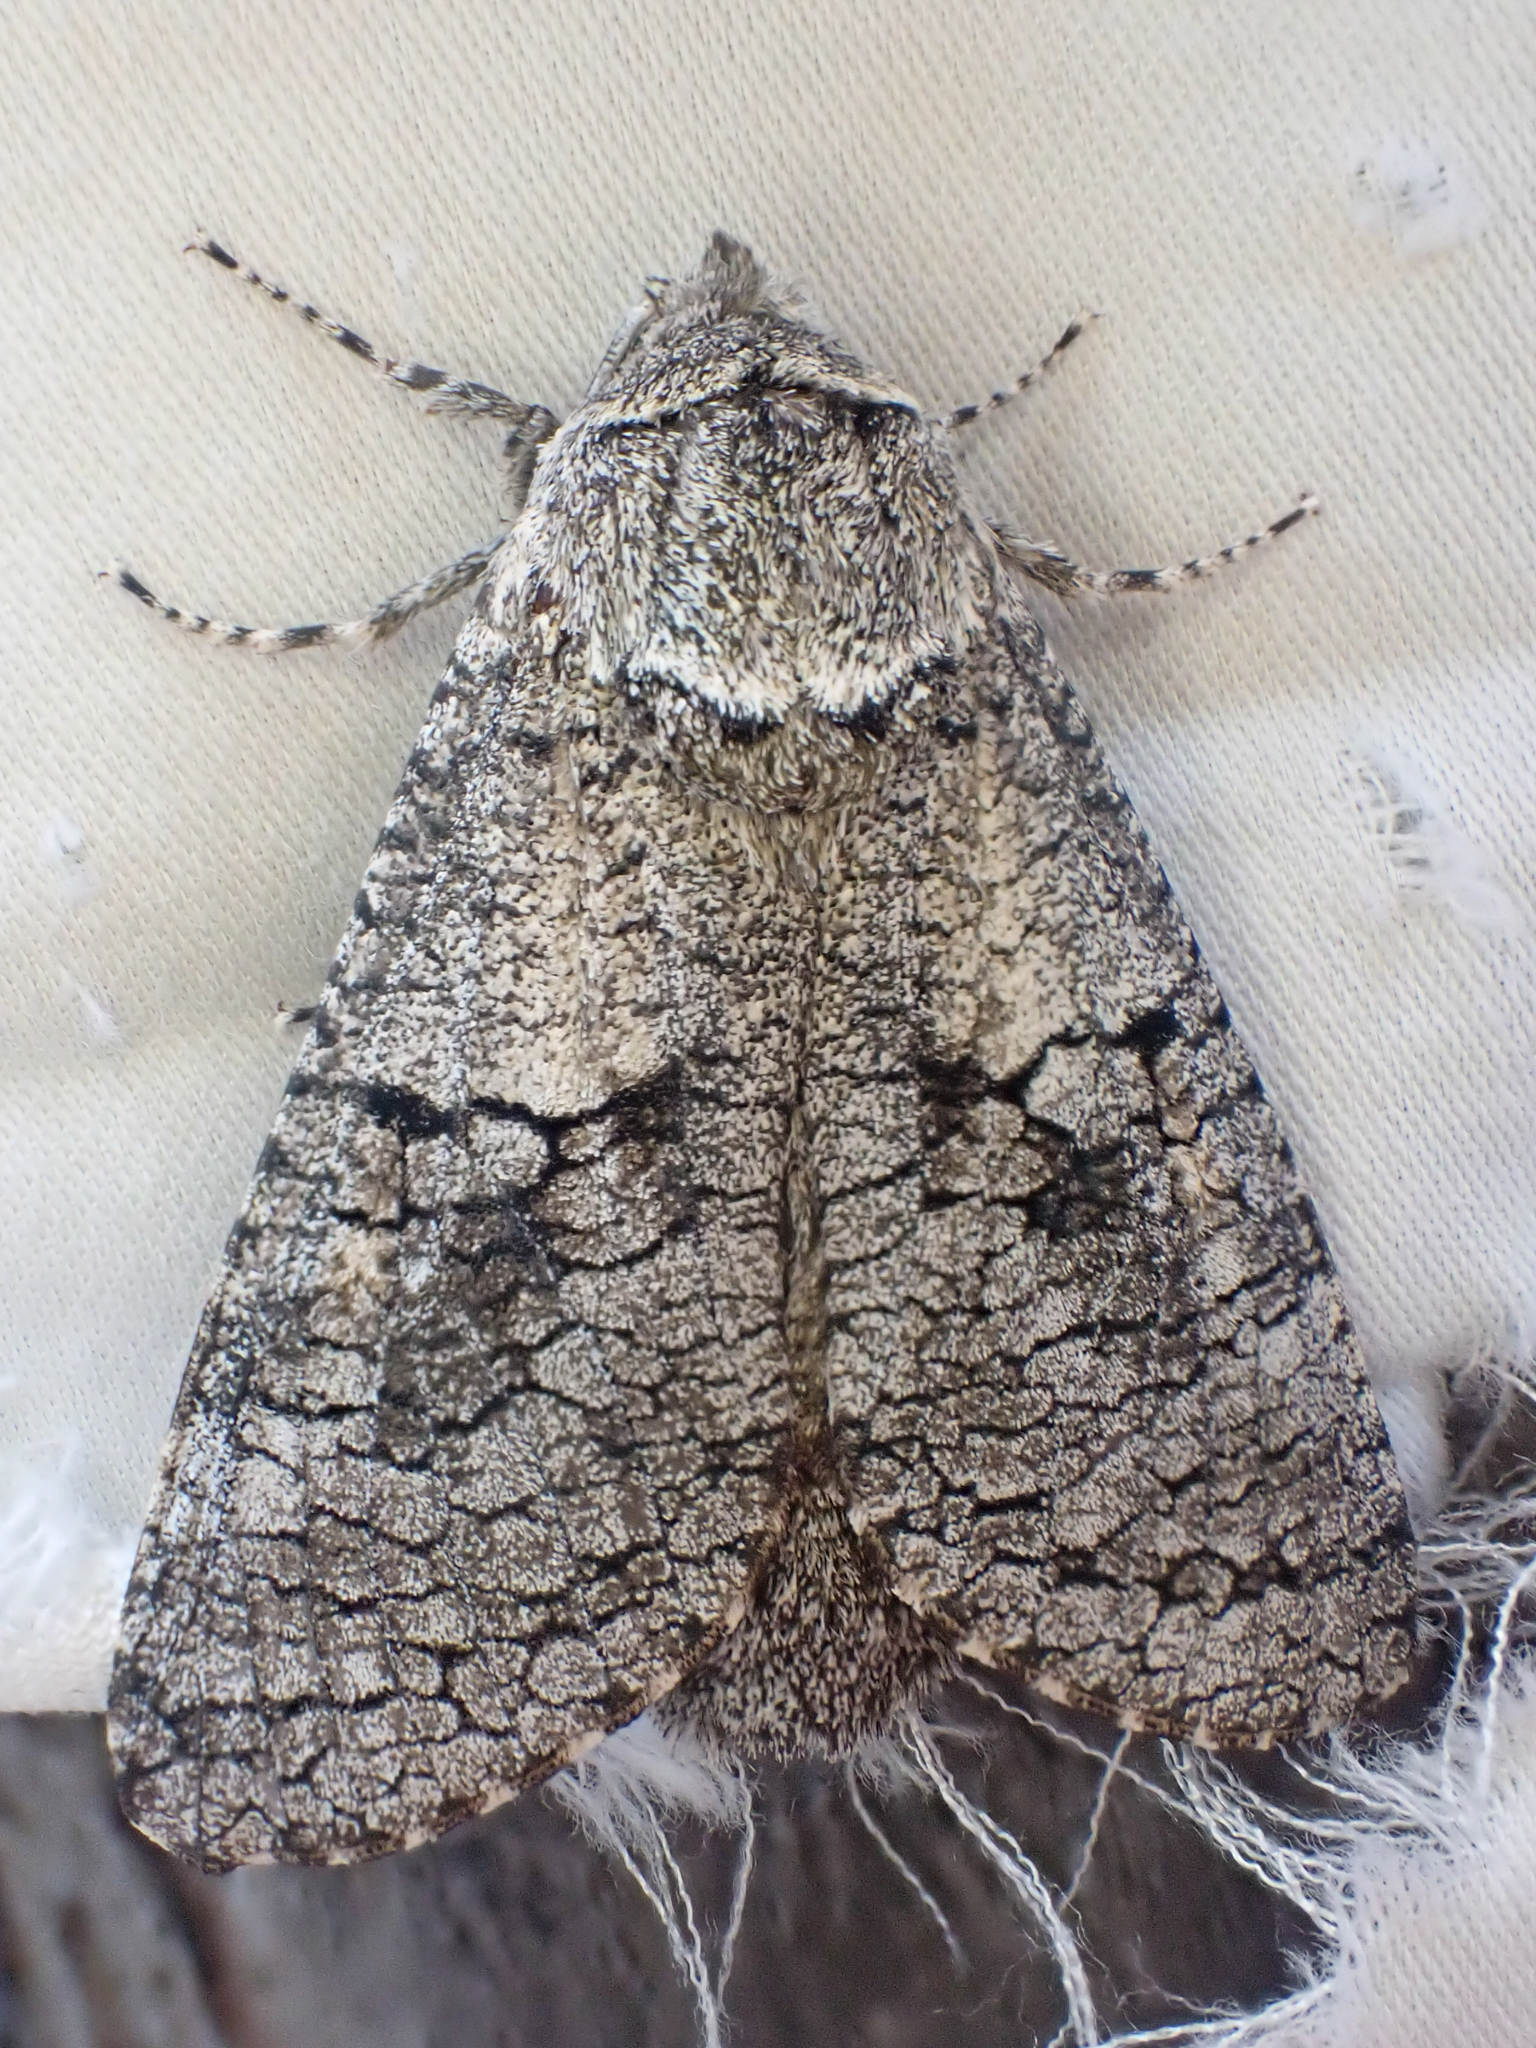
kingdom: Animalia
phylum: Arthropoda
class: Insecta
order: Lepidoptera
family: Cossidae
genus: Acossus
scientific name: Acossus populi
